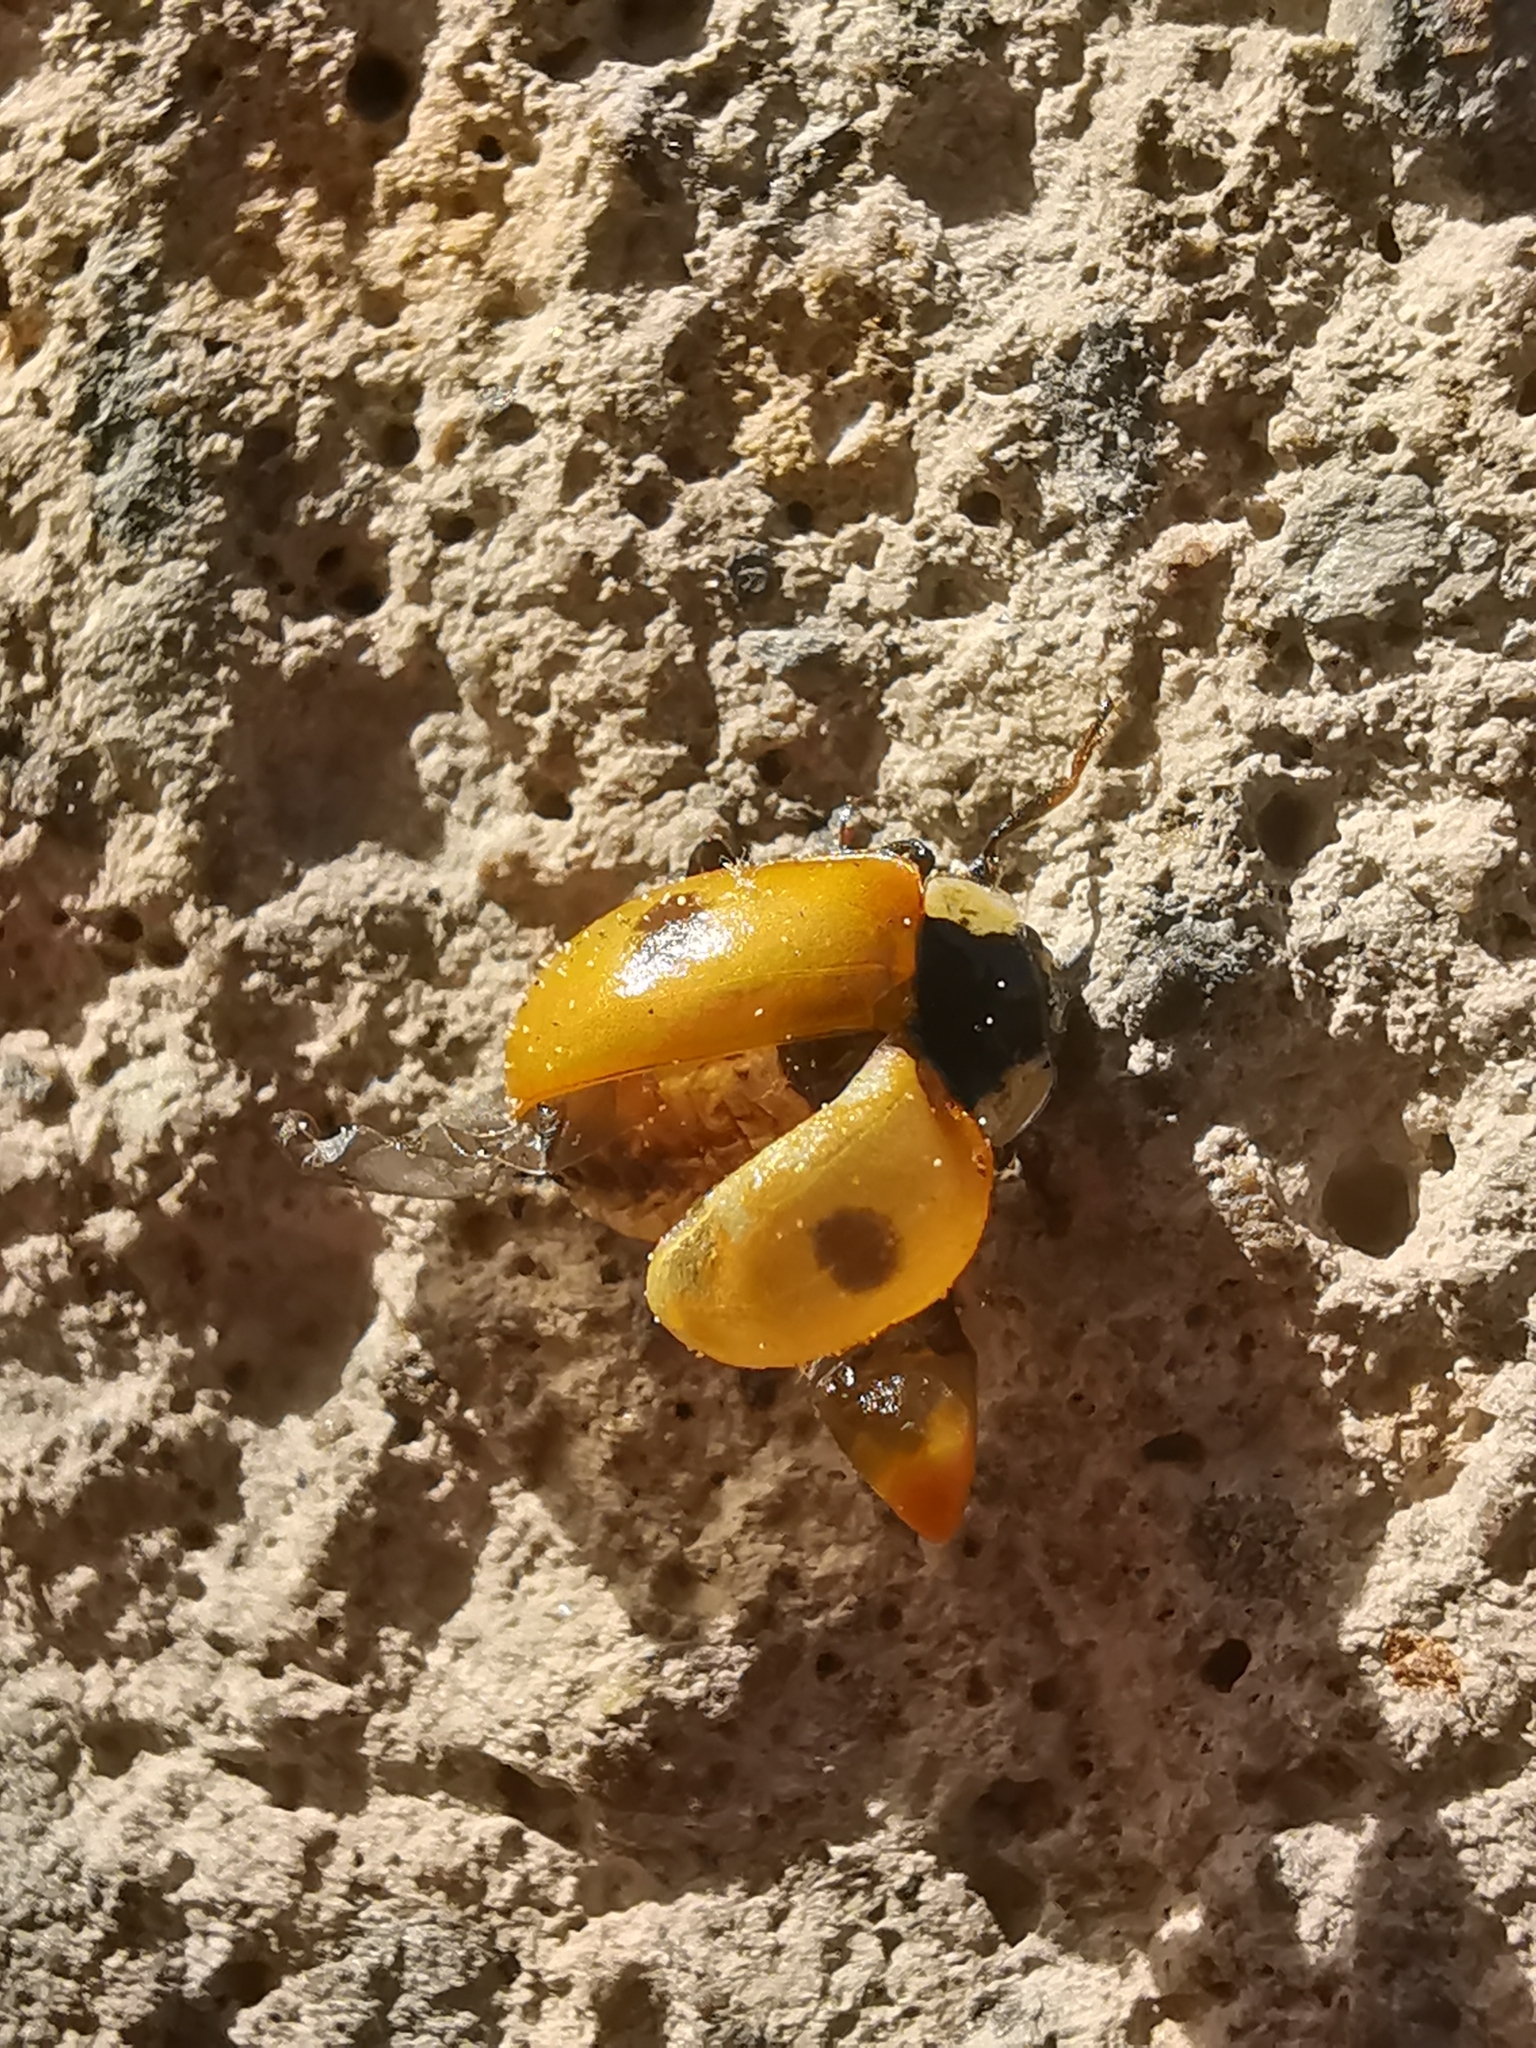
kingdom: Animalia
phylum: Arthropoda
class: Insecta
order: Coleoptera
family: Coccinellidae
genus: Adalia
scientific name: Adalia bipunctata
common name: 2-spot ladybird
